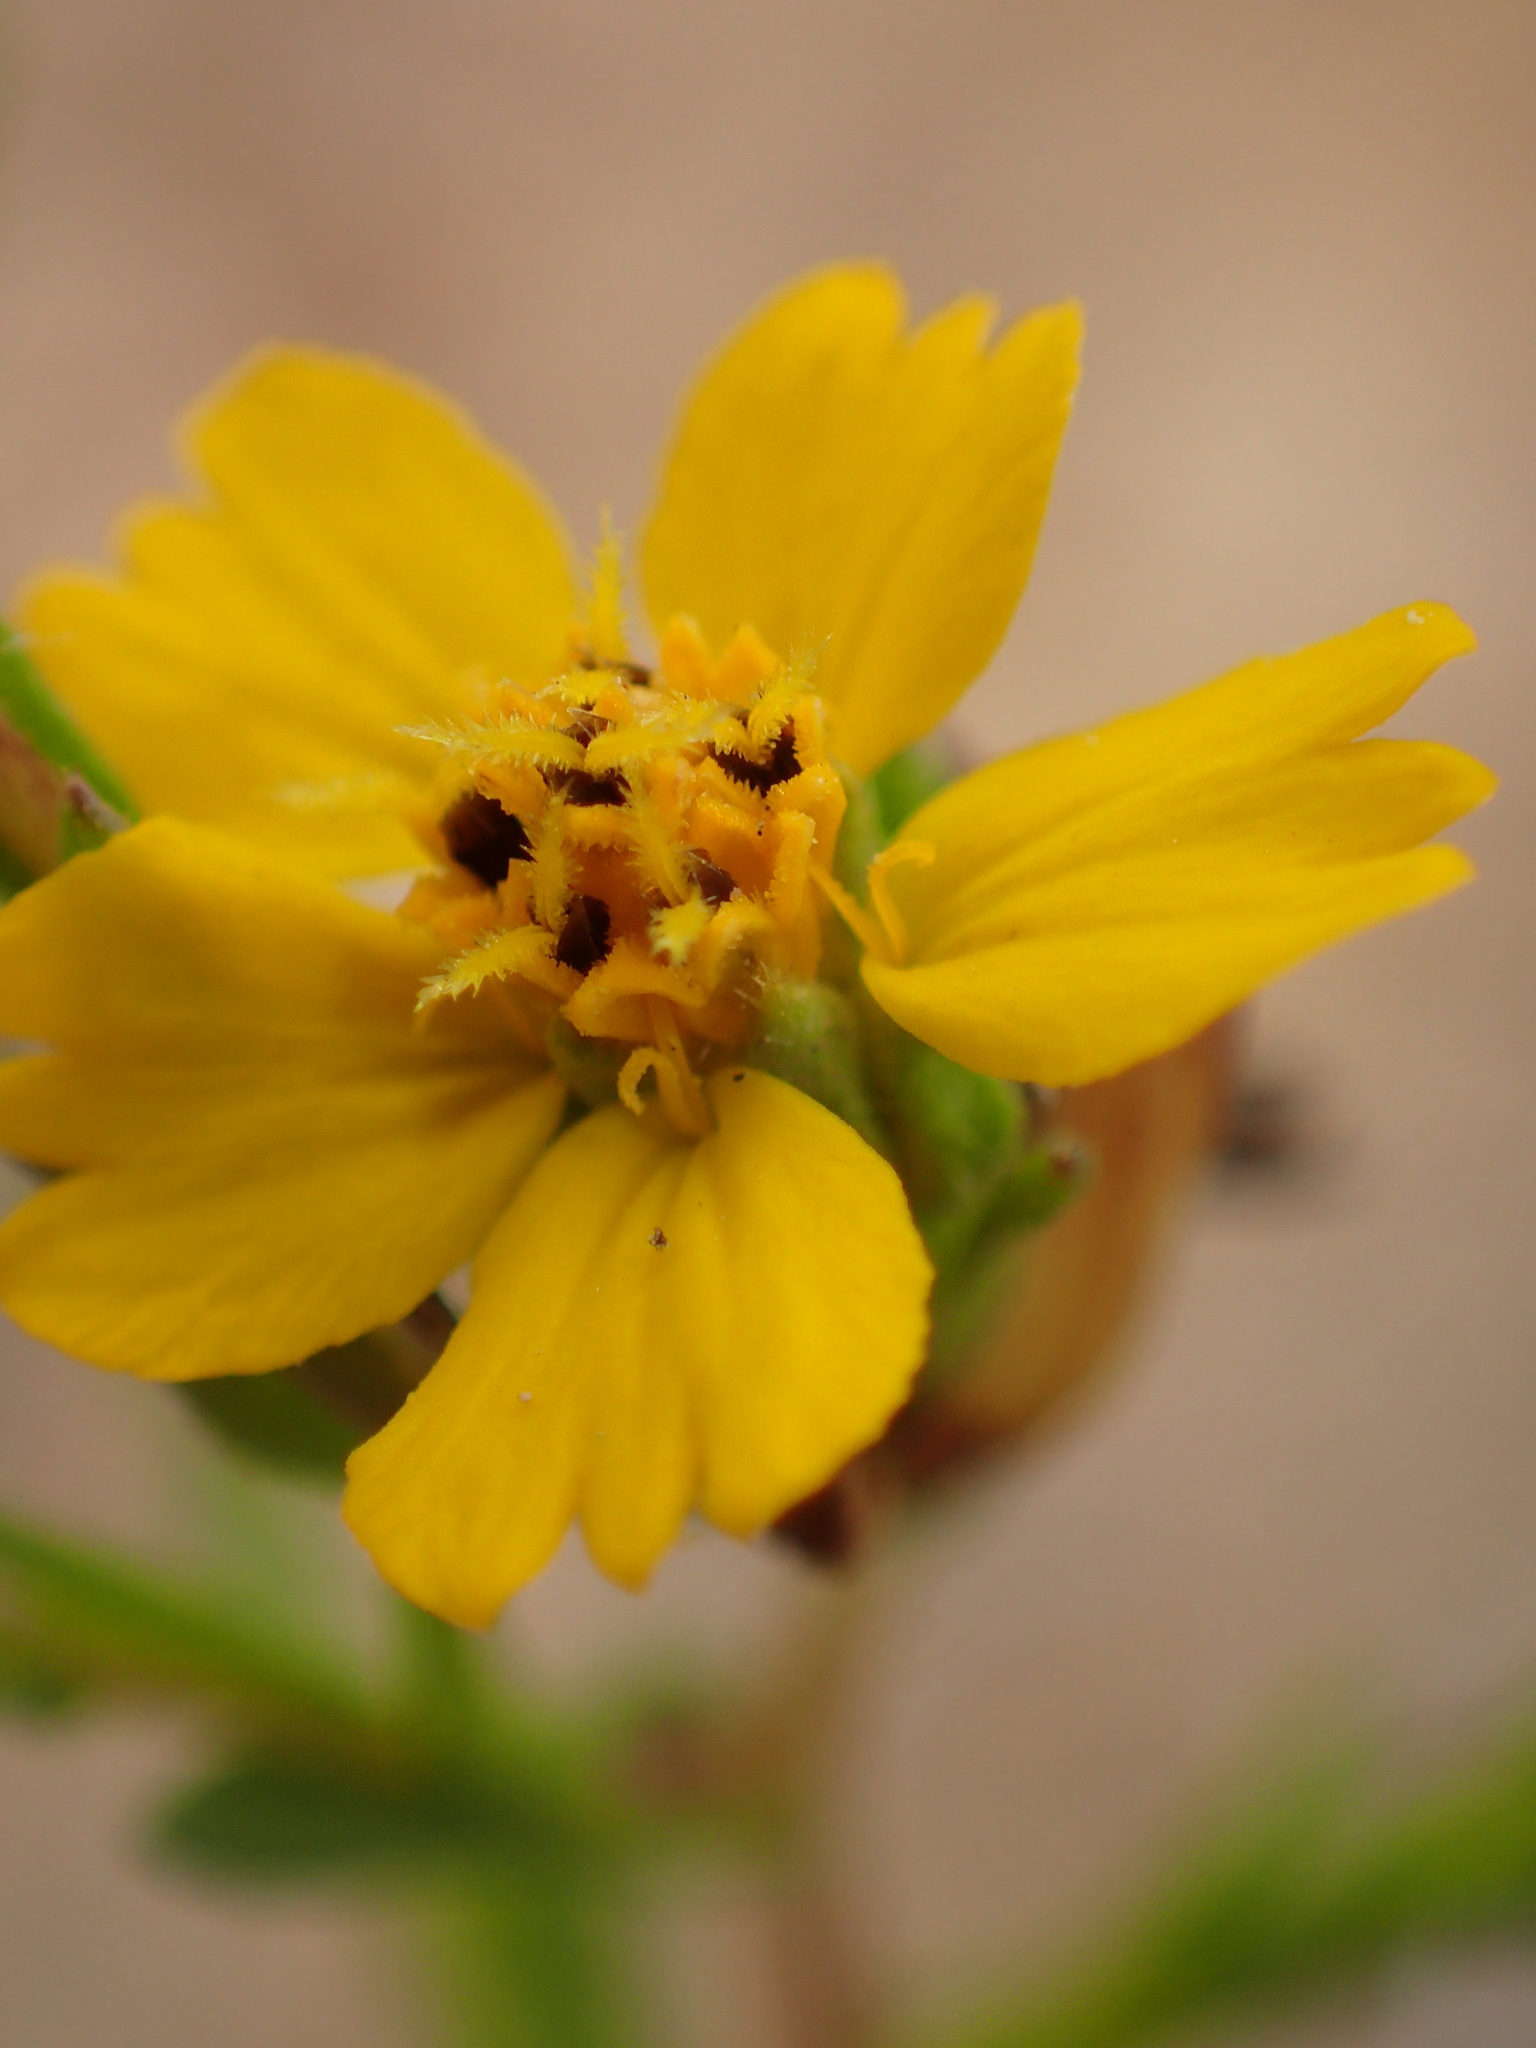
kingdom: Plantae
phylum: Tracheophyta
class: Magnoliopsida
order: Asterales
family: Asteraceae
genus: Deinandra
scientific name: Deinandra fasciculata
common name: Clustered tarweed
